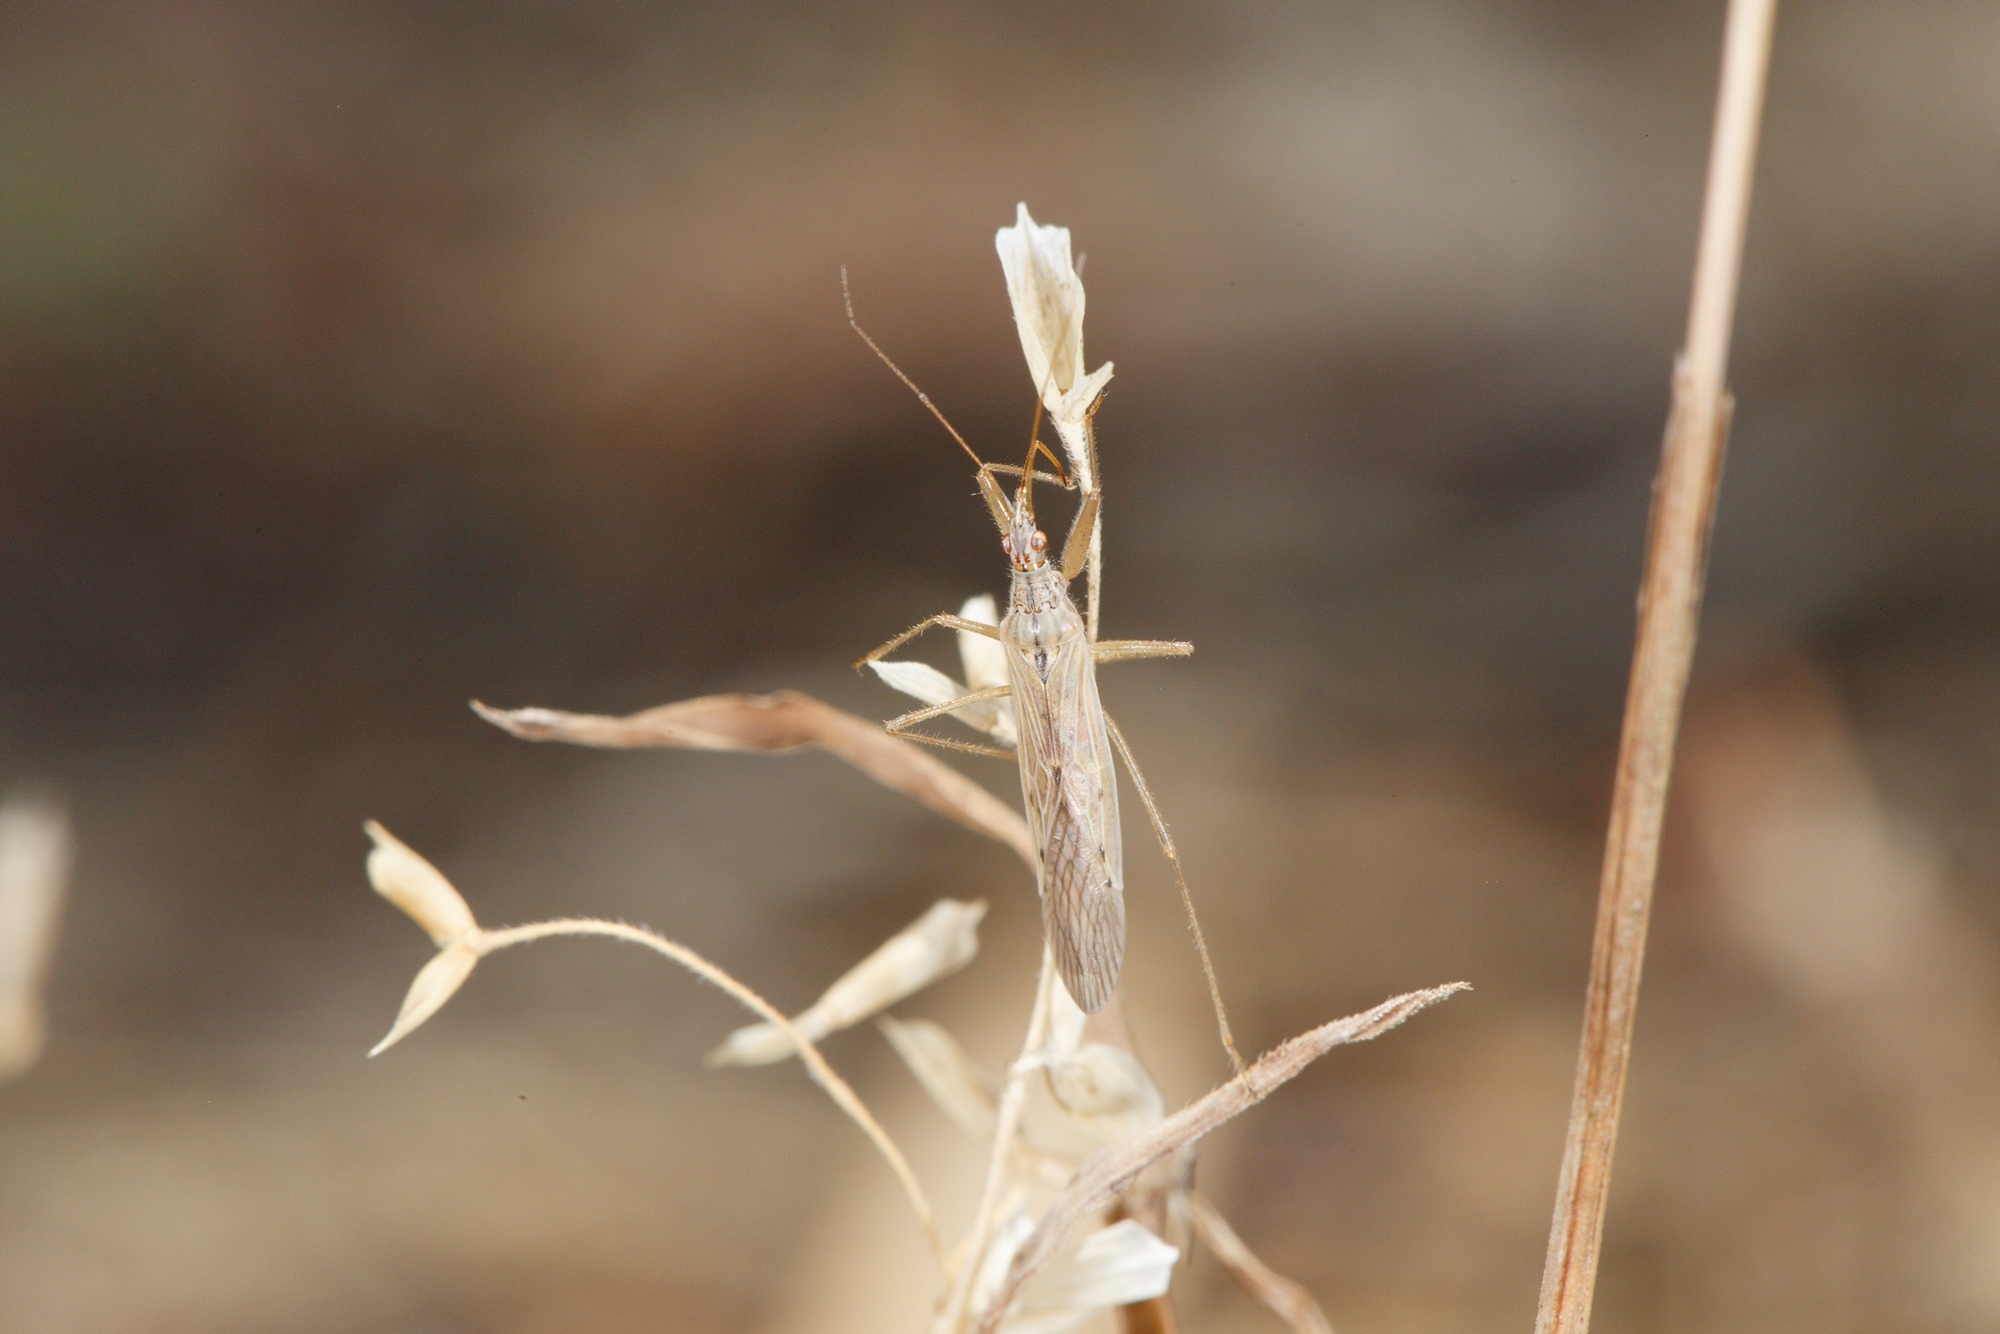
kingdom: Animalia
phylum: Arthropoda
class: Insecta
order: Hemiptera
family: Nabidae
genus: Nabis
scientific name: Nabis kinbergii
